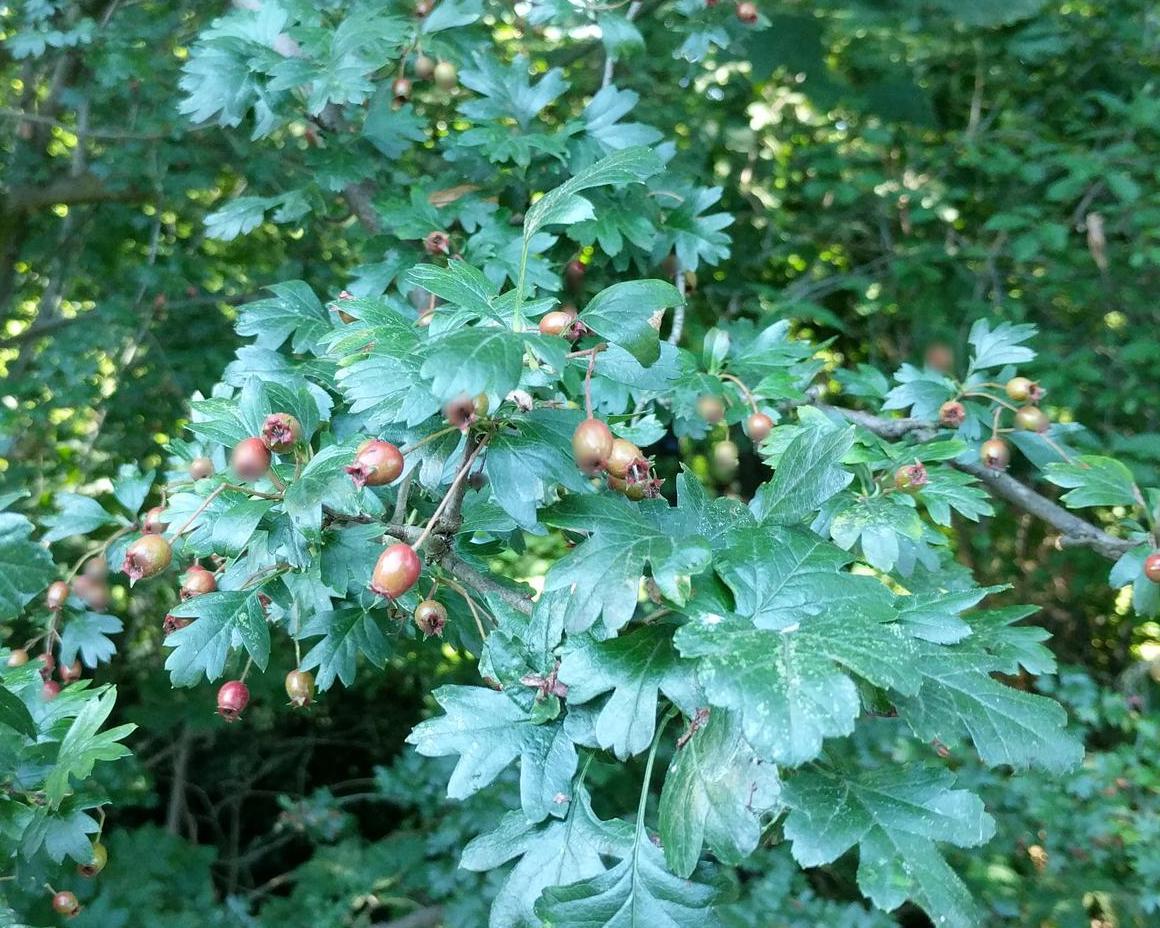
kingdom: Plantae
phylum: Tracheophyta
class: Magnoliopsida
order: Rosales
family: Rosaceae
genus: Crataegus
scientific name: Crataegus monogyna
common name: Hawthorn
